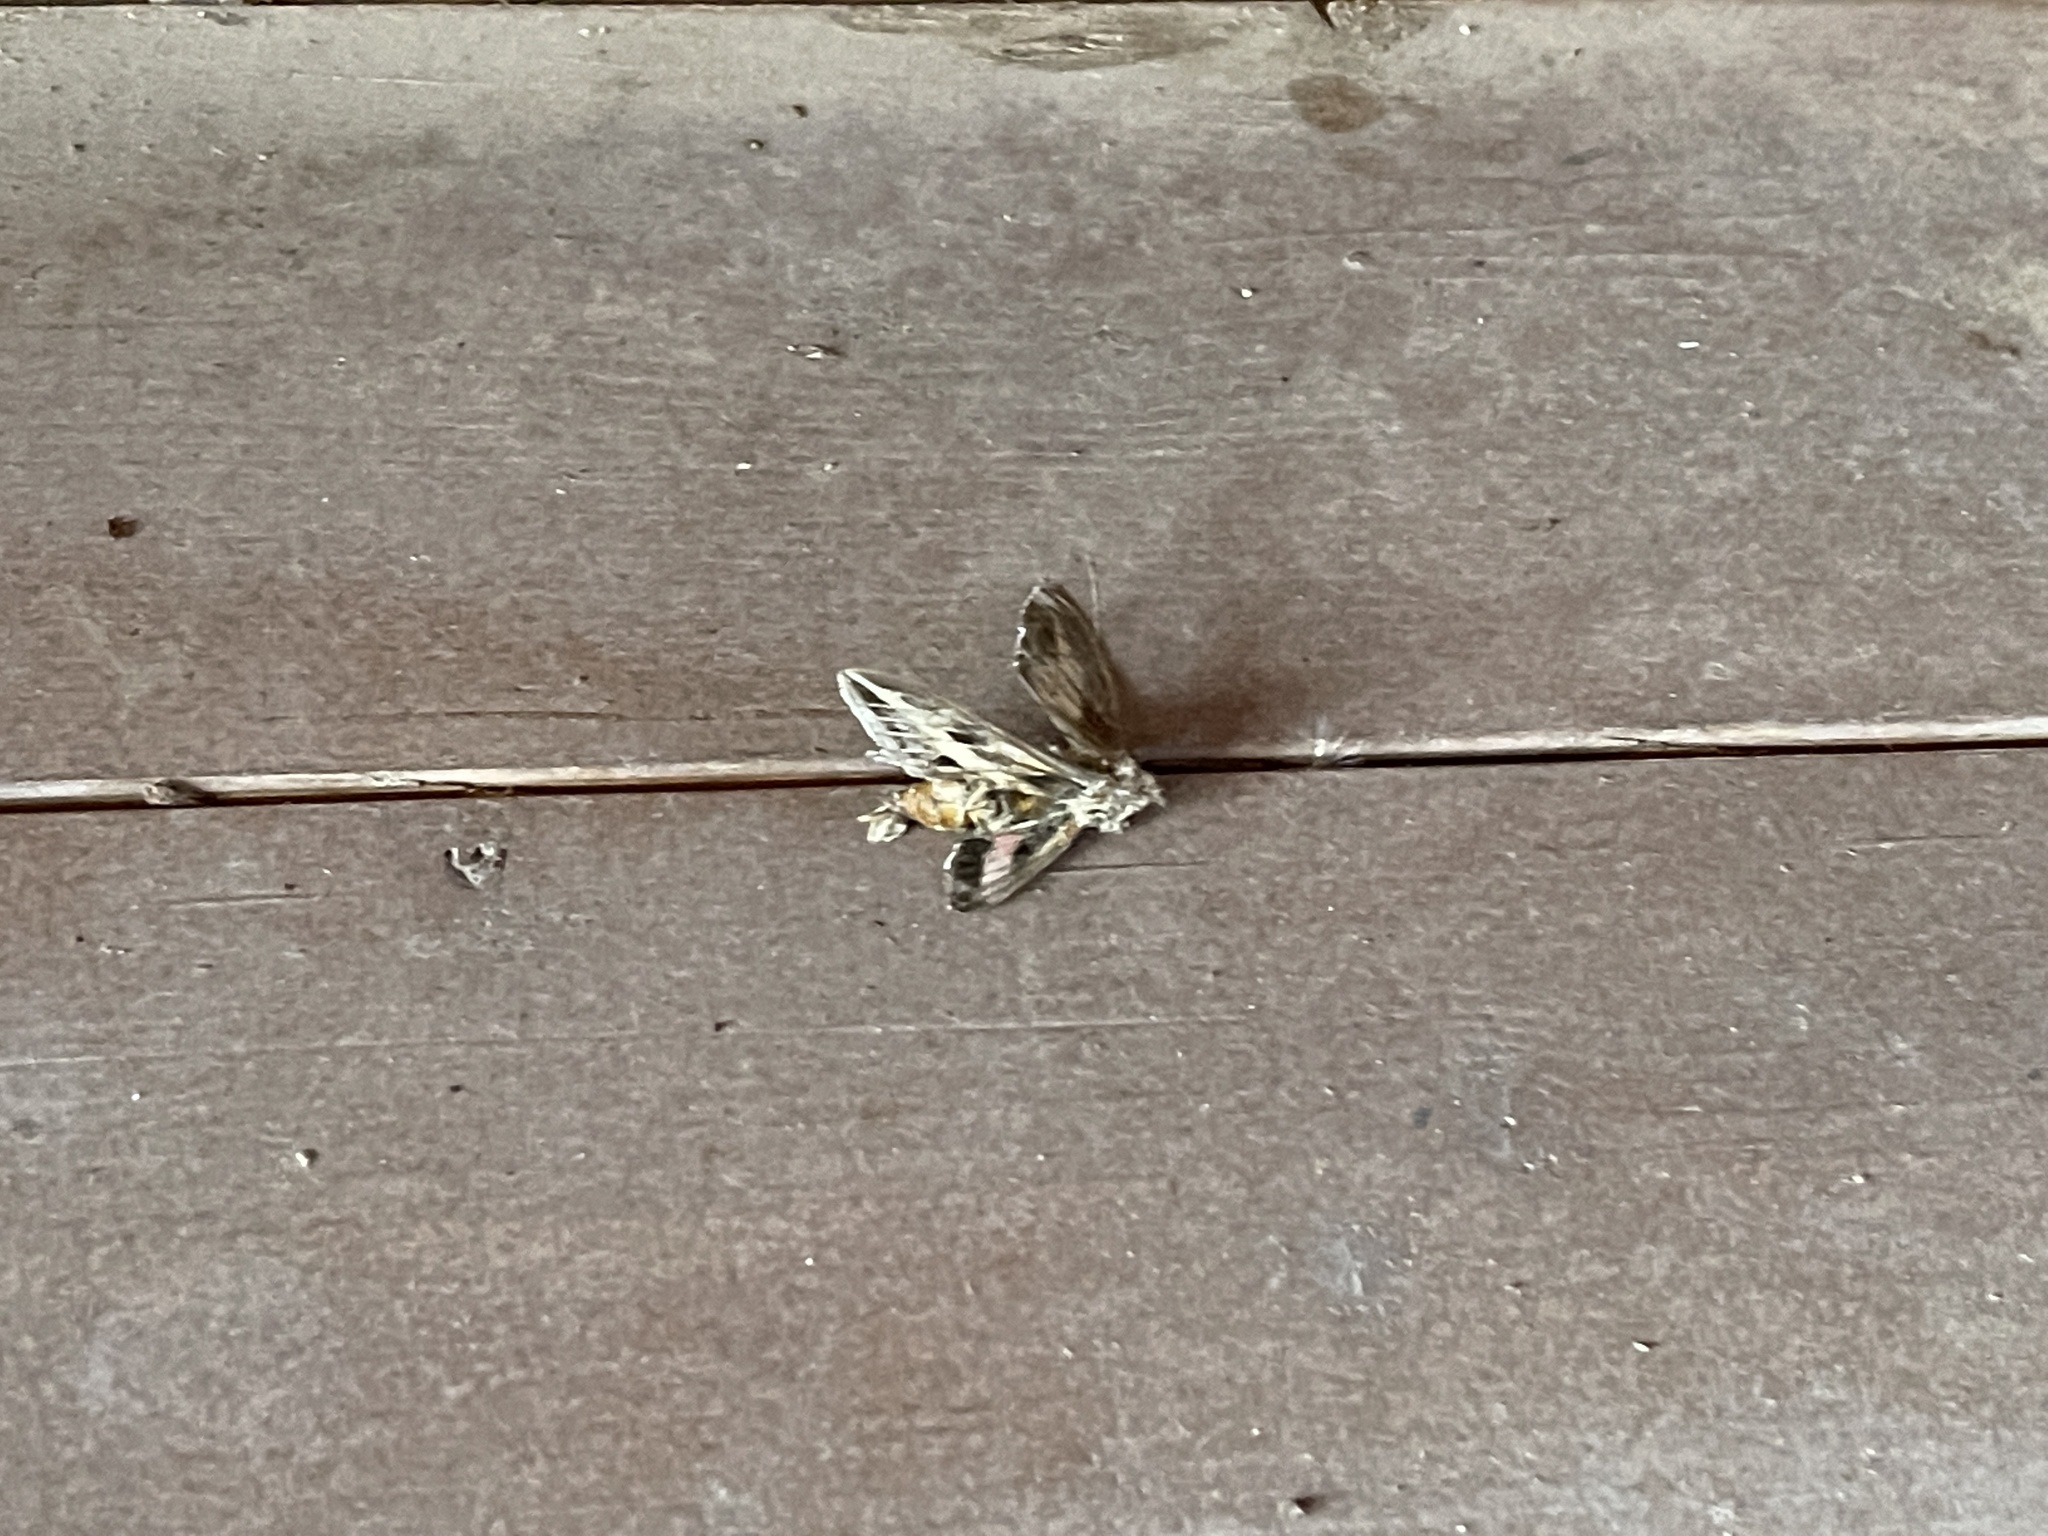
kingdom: Animalia
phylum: Arthropoda
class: Insecta
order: Lepidoptera
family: Sphingidae
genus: Hyles
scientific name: Hyles lineata
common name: White-lined sphinx
